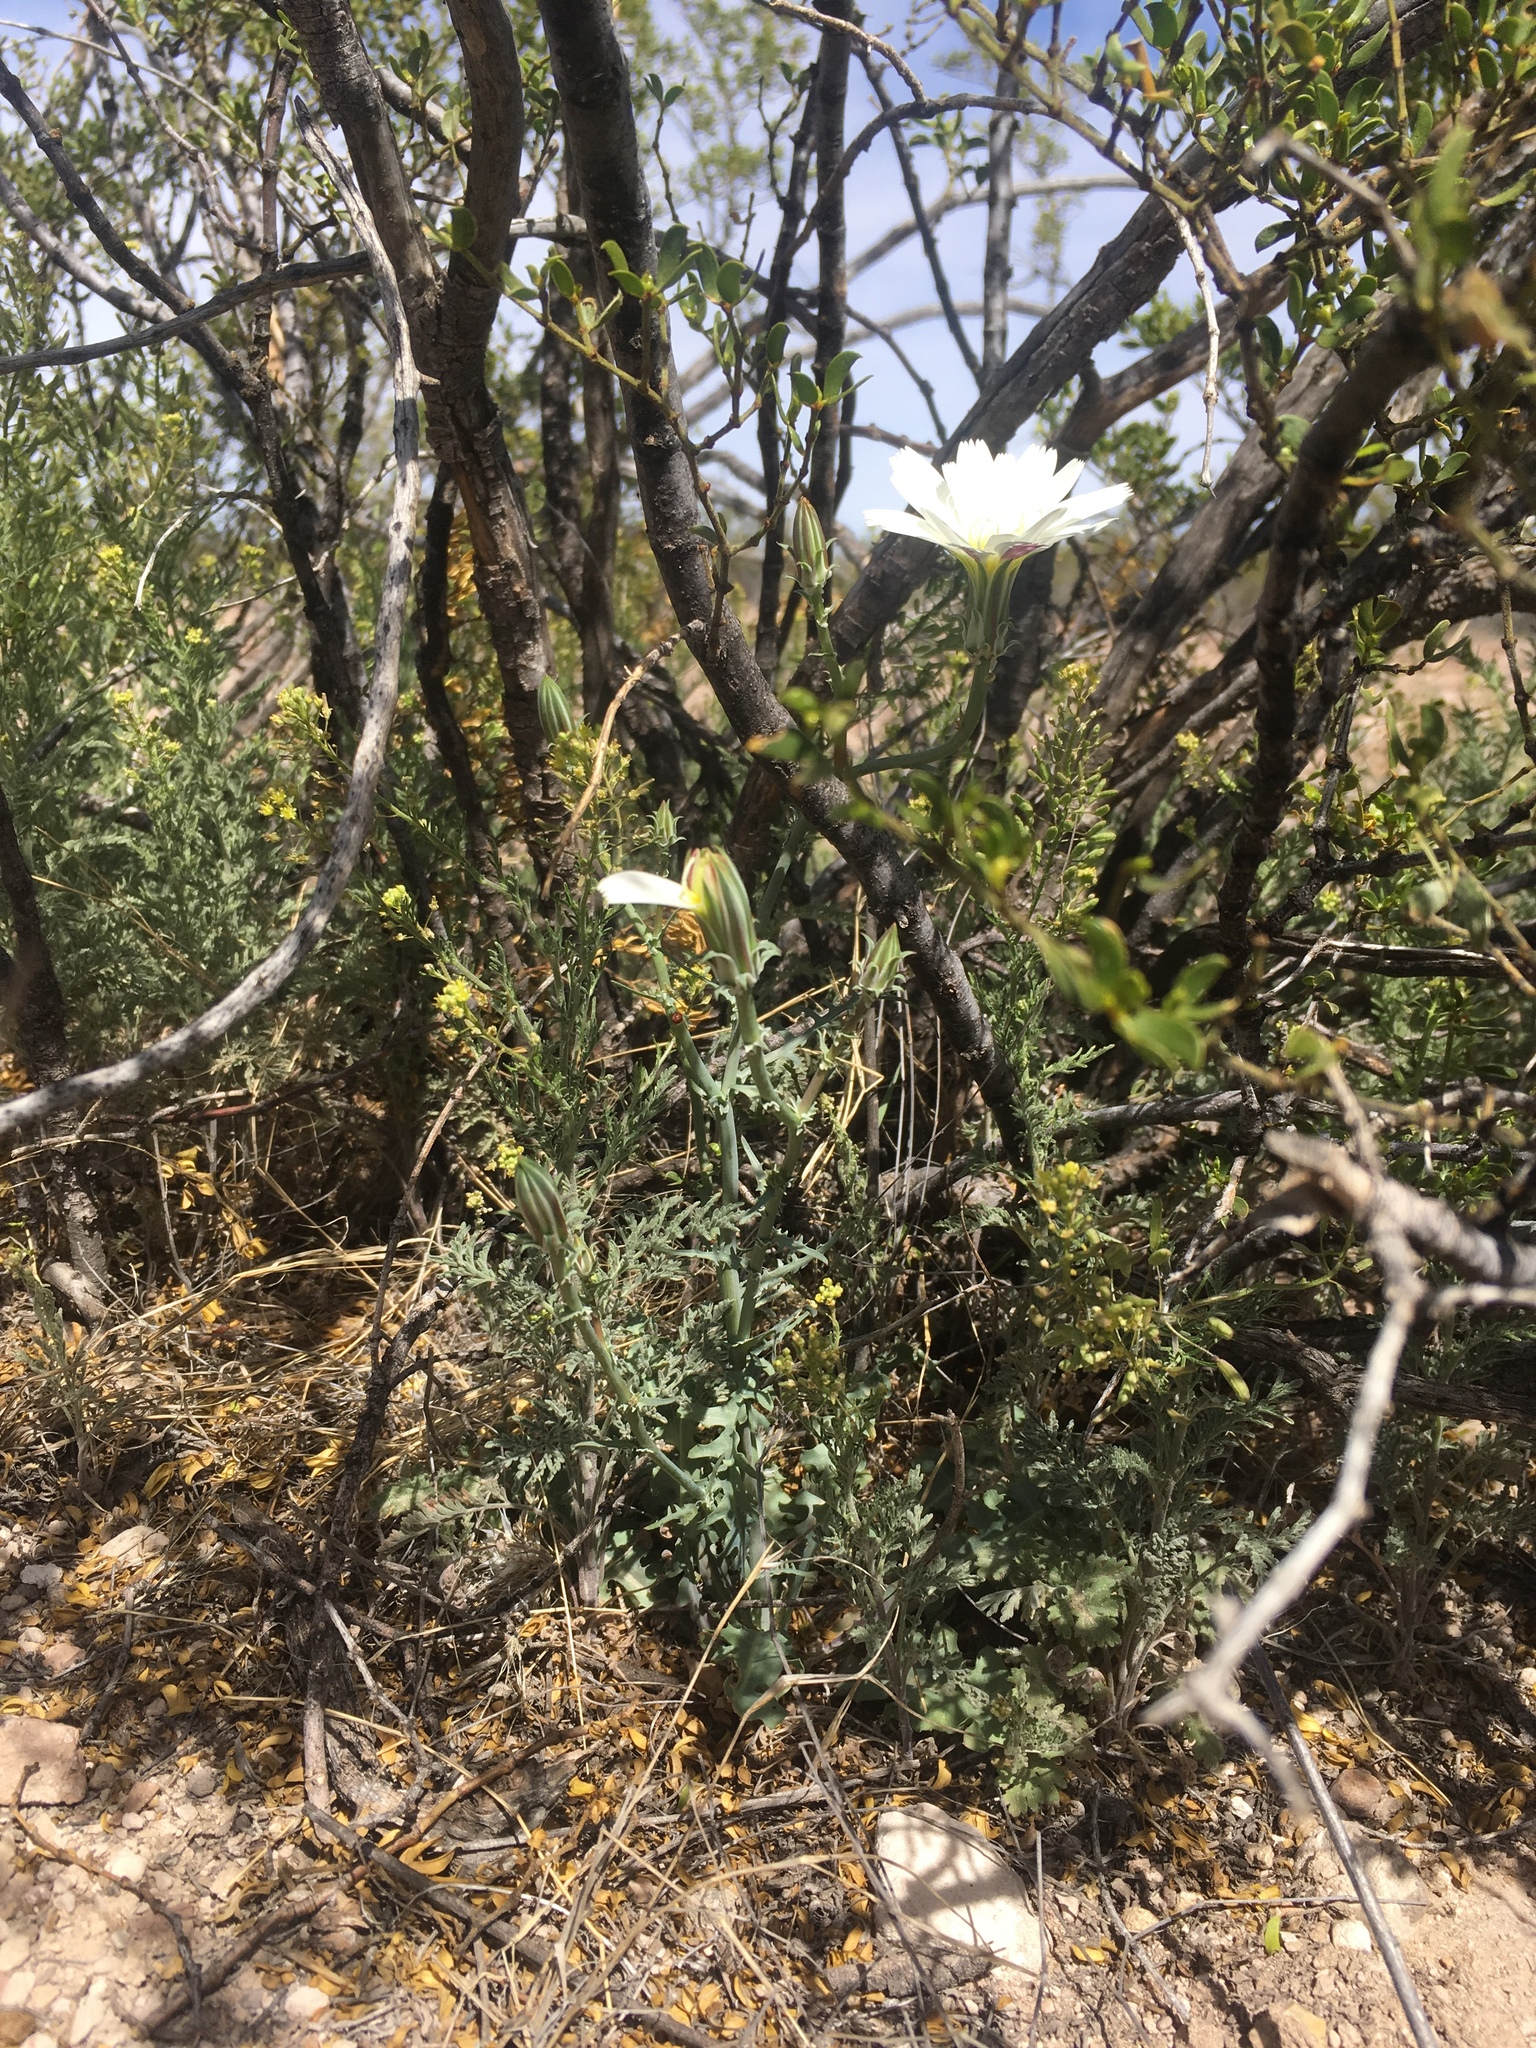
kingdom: Plantae
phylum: Tracheophyta
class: Magnoliopsida
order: Asterales
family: Asteraceae
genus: Rafinesquia
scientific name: Rafinesquia neomexicana
